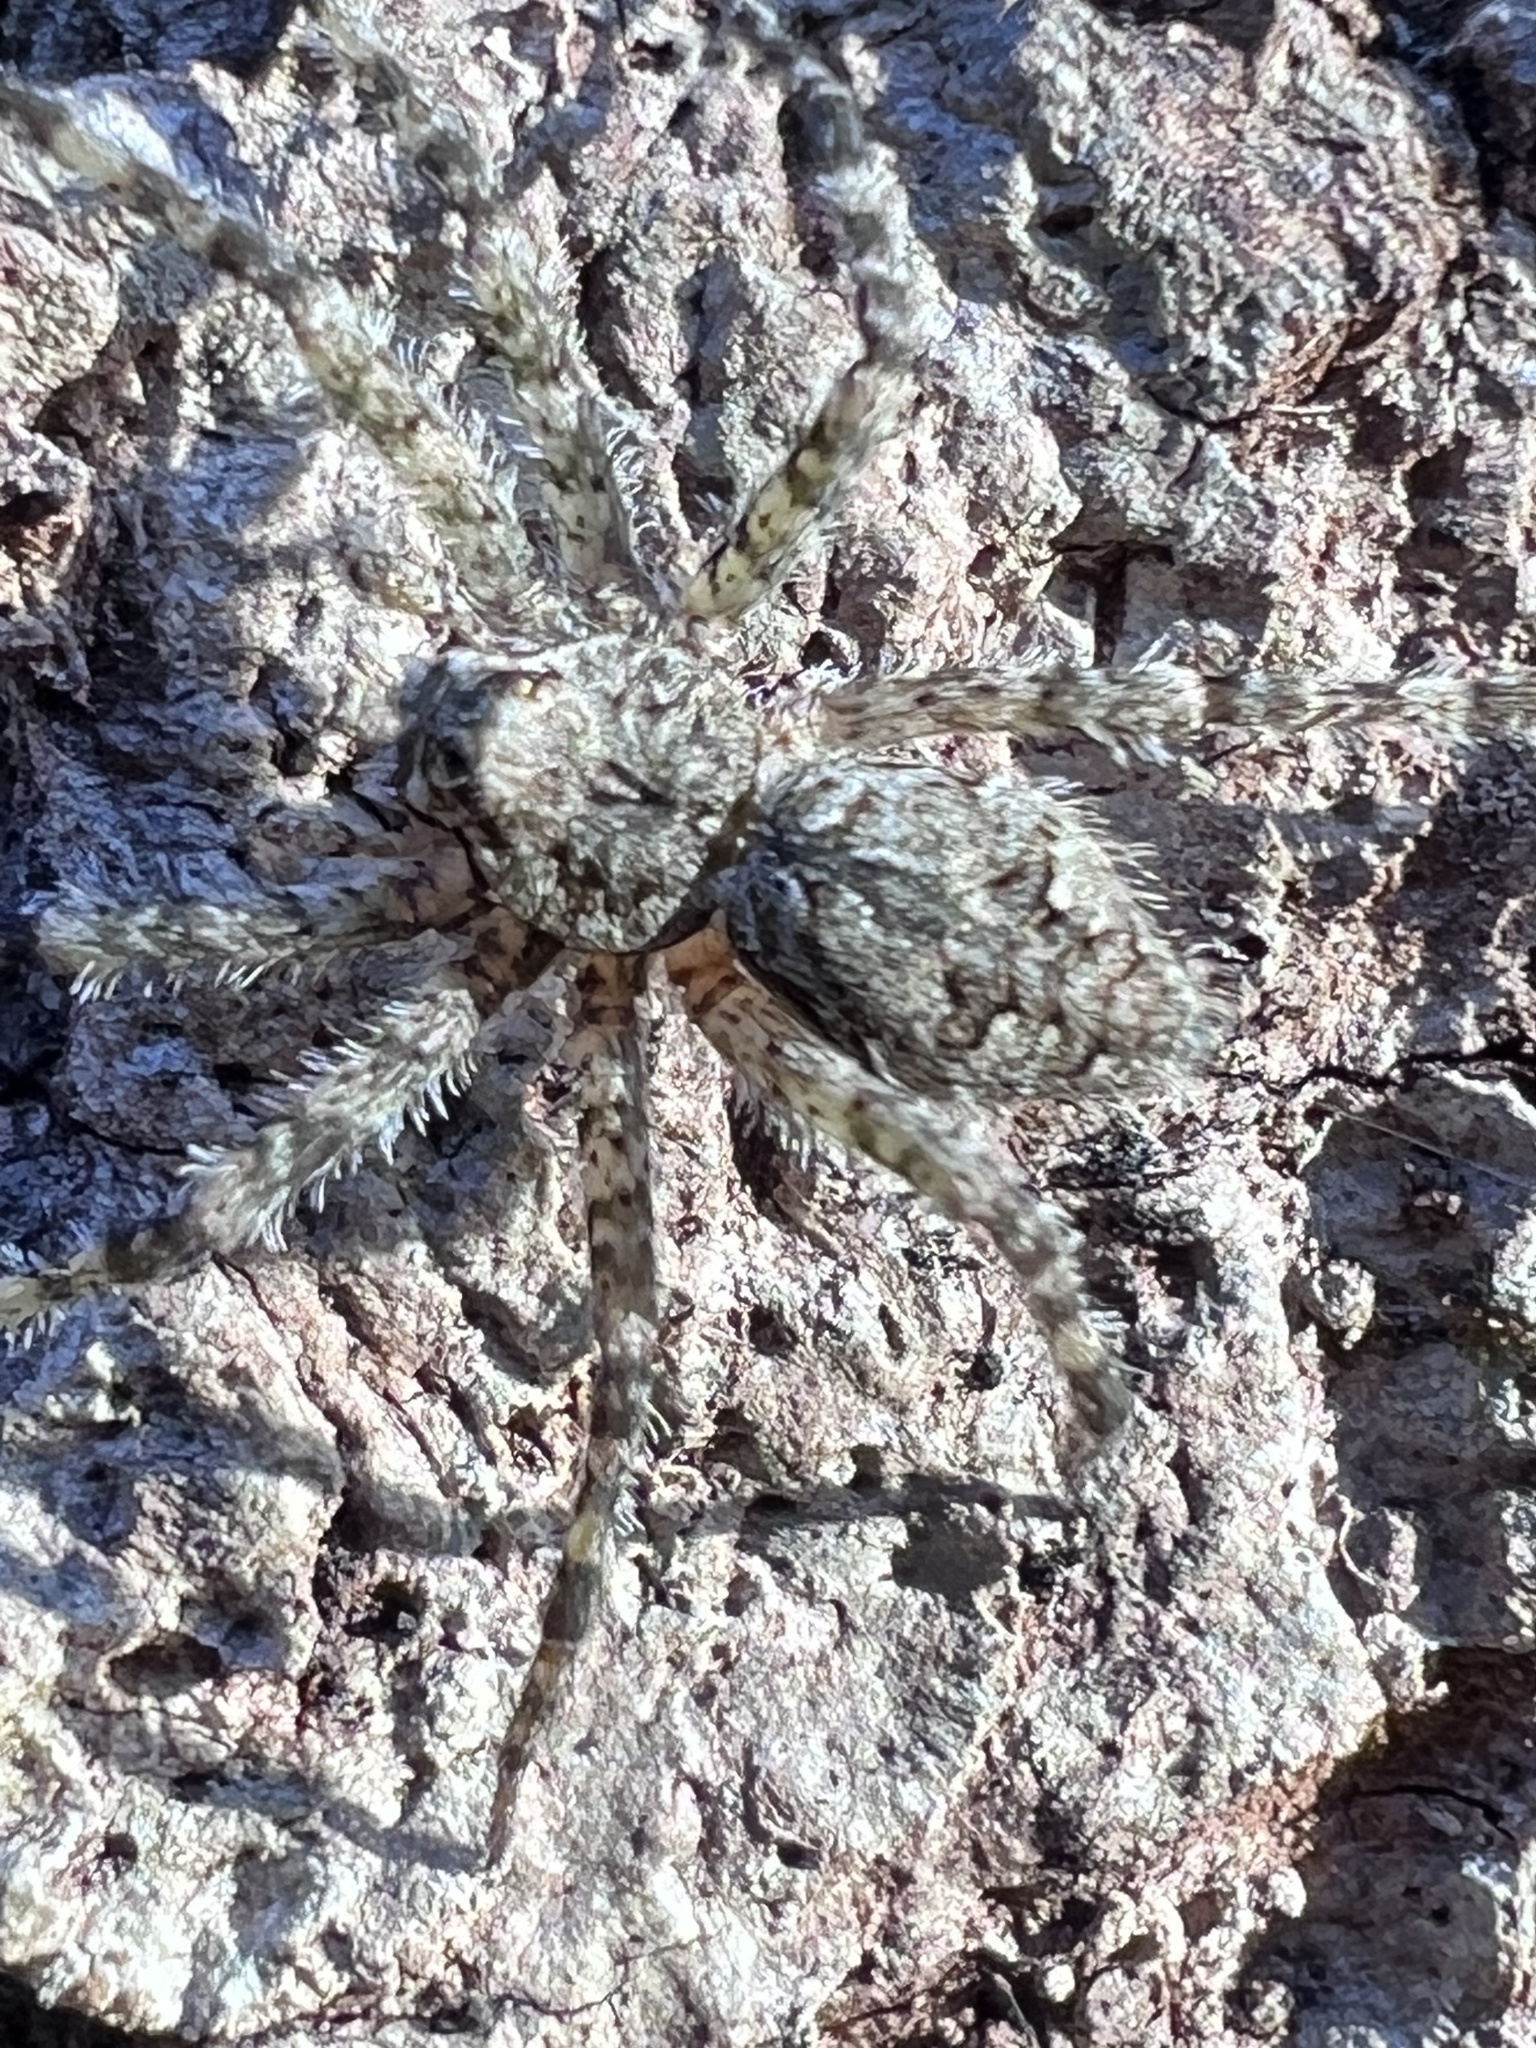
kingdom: Animalia
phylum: Arthropoda
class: Arachnida
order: Araneae
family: Pisauridae
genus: Dolomedes
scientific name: Dolomedes albineus
